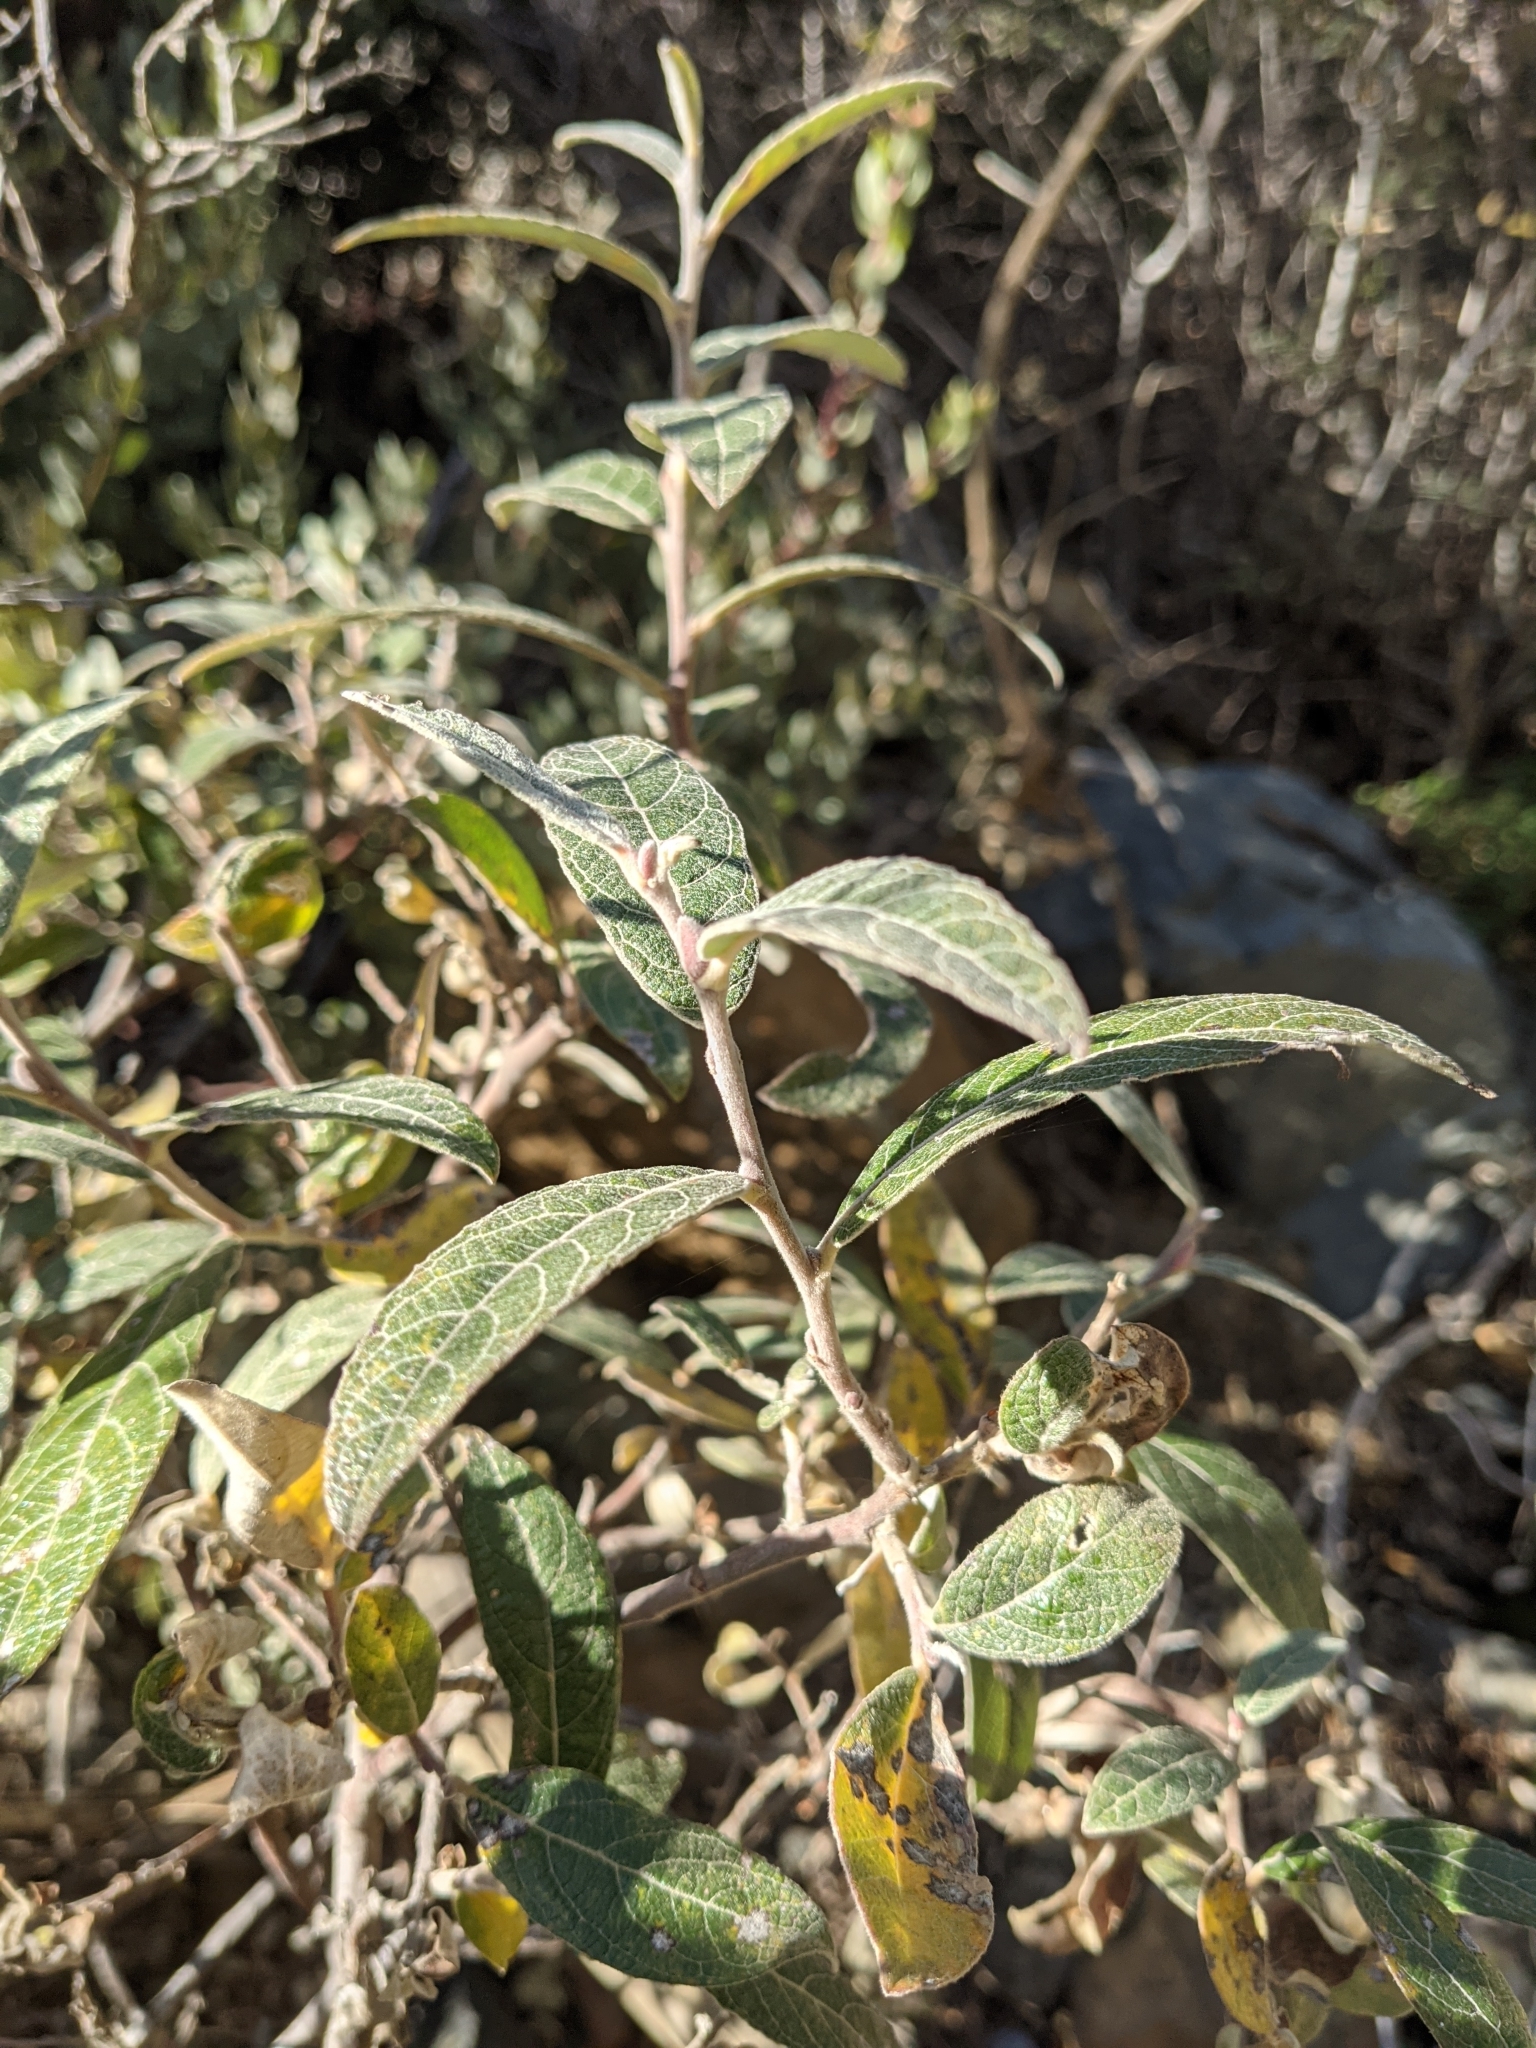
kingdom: Plantae
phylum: Tracheophyta
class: Magnoliopsida
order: Malpighiales
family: Salicaceae
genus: Salix
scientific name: Salix breweri
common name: Brewer’s willow
